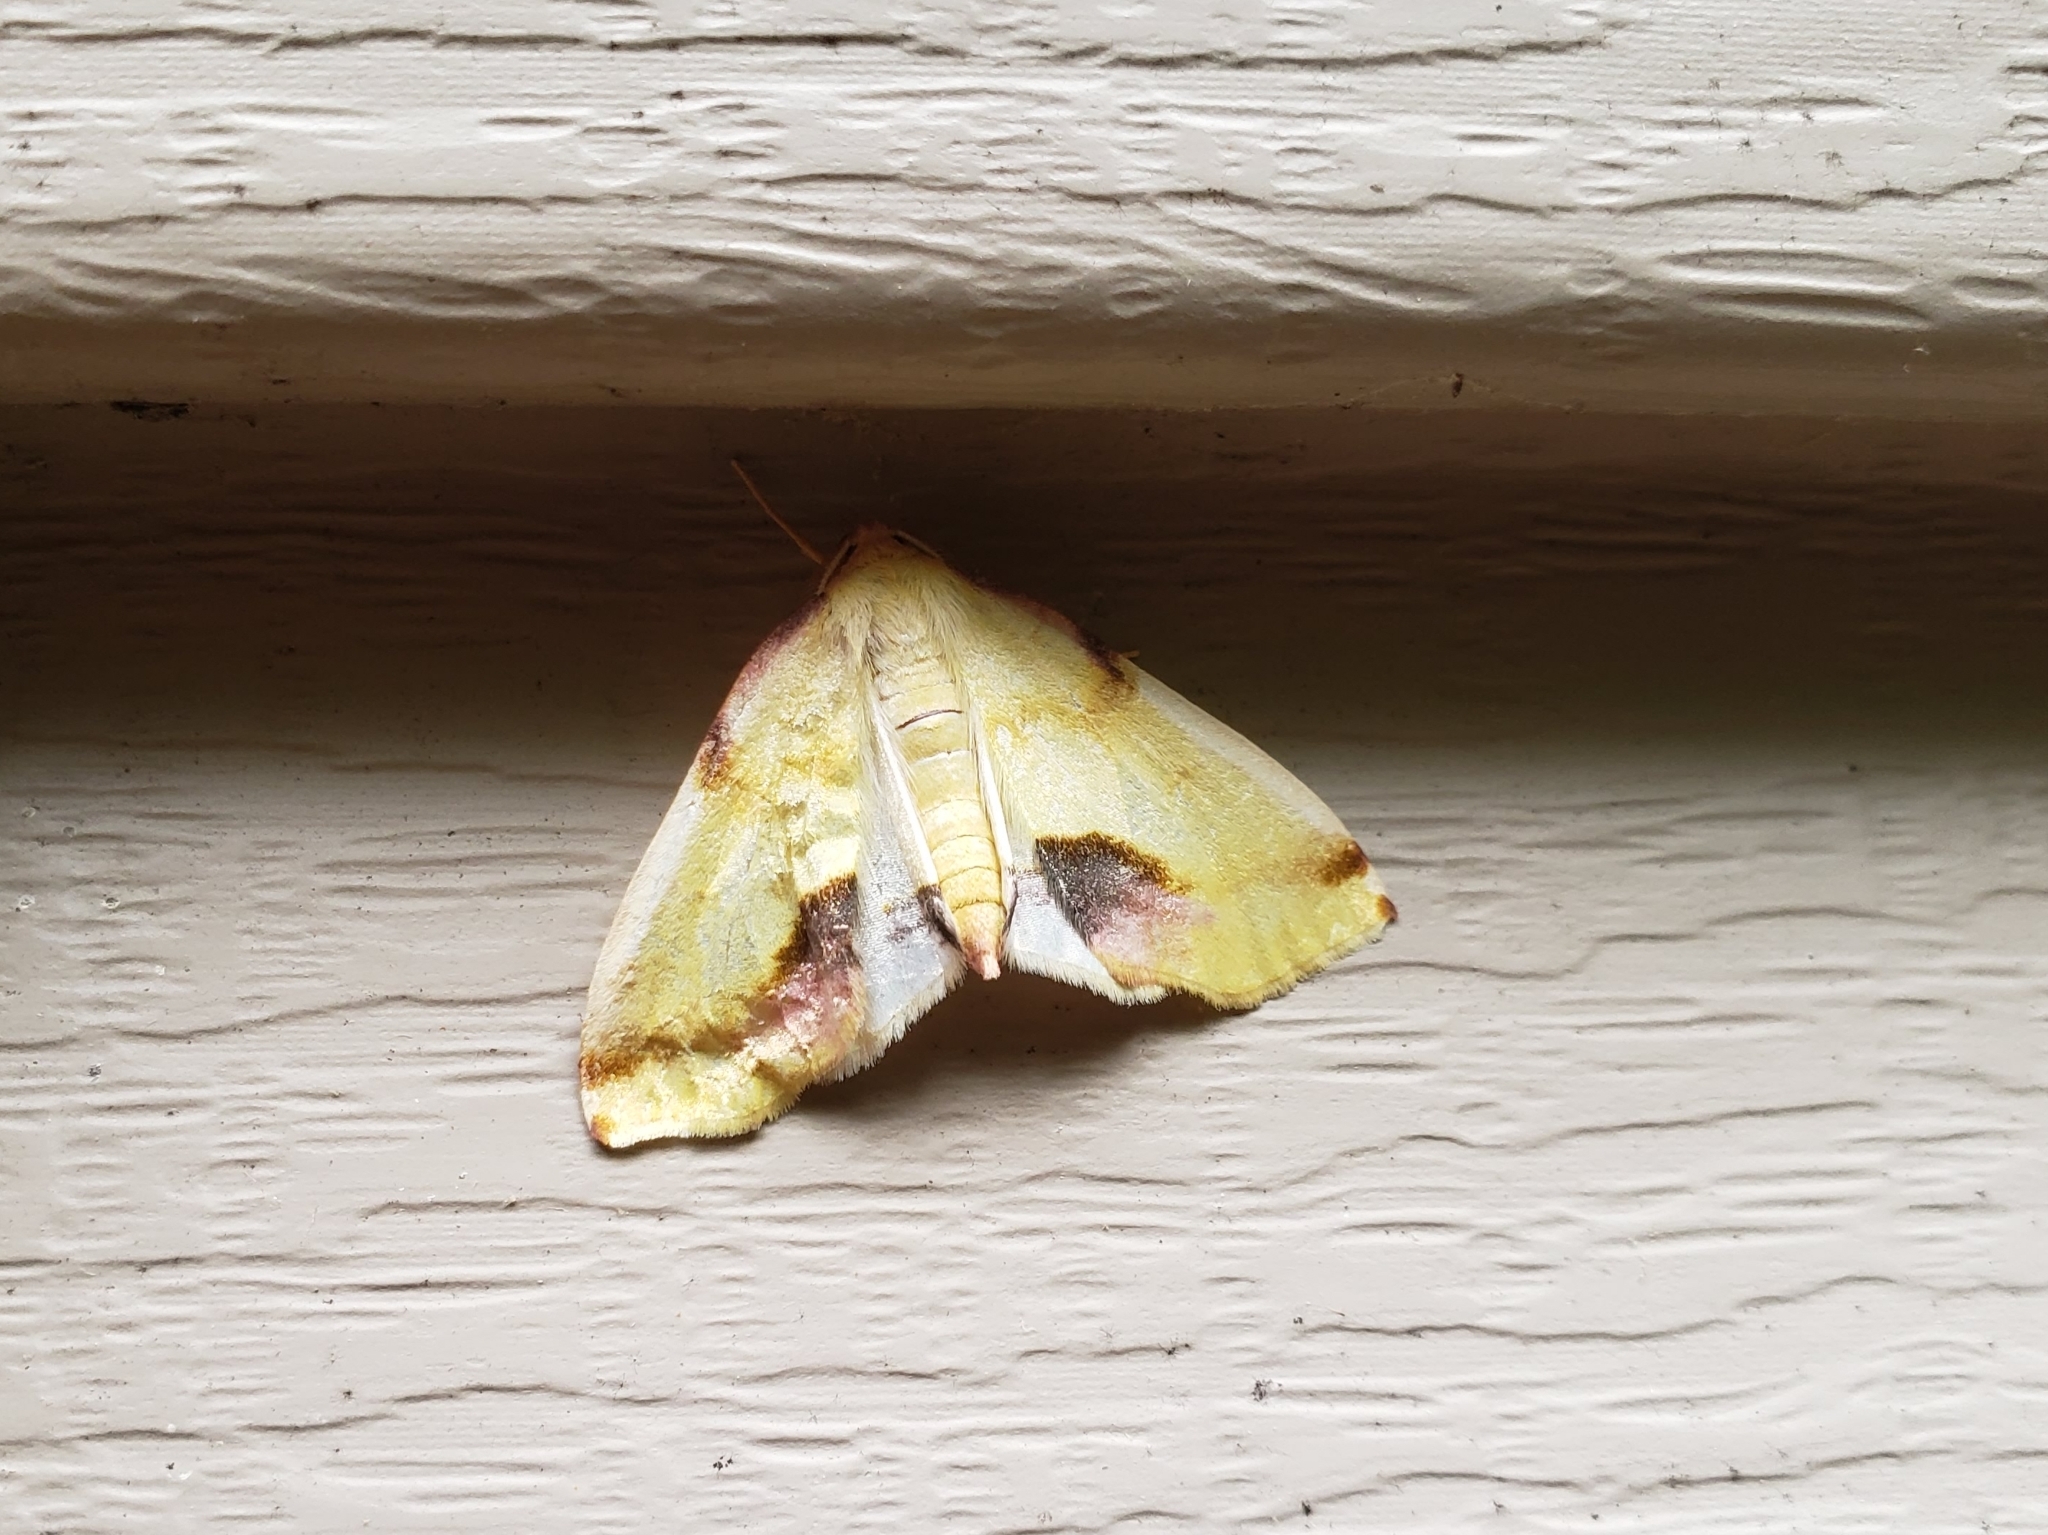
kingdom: Animalia
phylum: Arthropoda
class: Insecta
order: Lepidoptera
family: Geometridae
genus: Plagodis
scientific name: Plagodis serinaria
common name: Lemon plagodis
